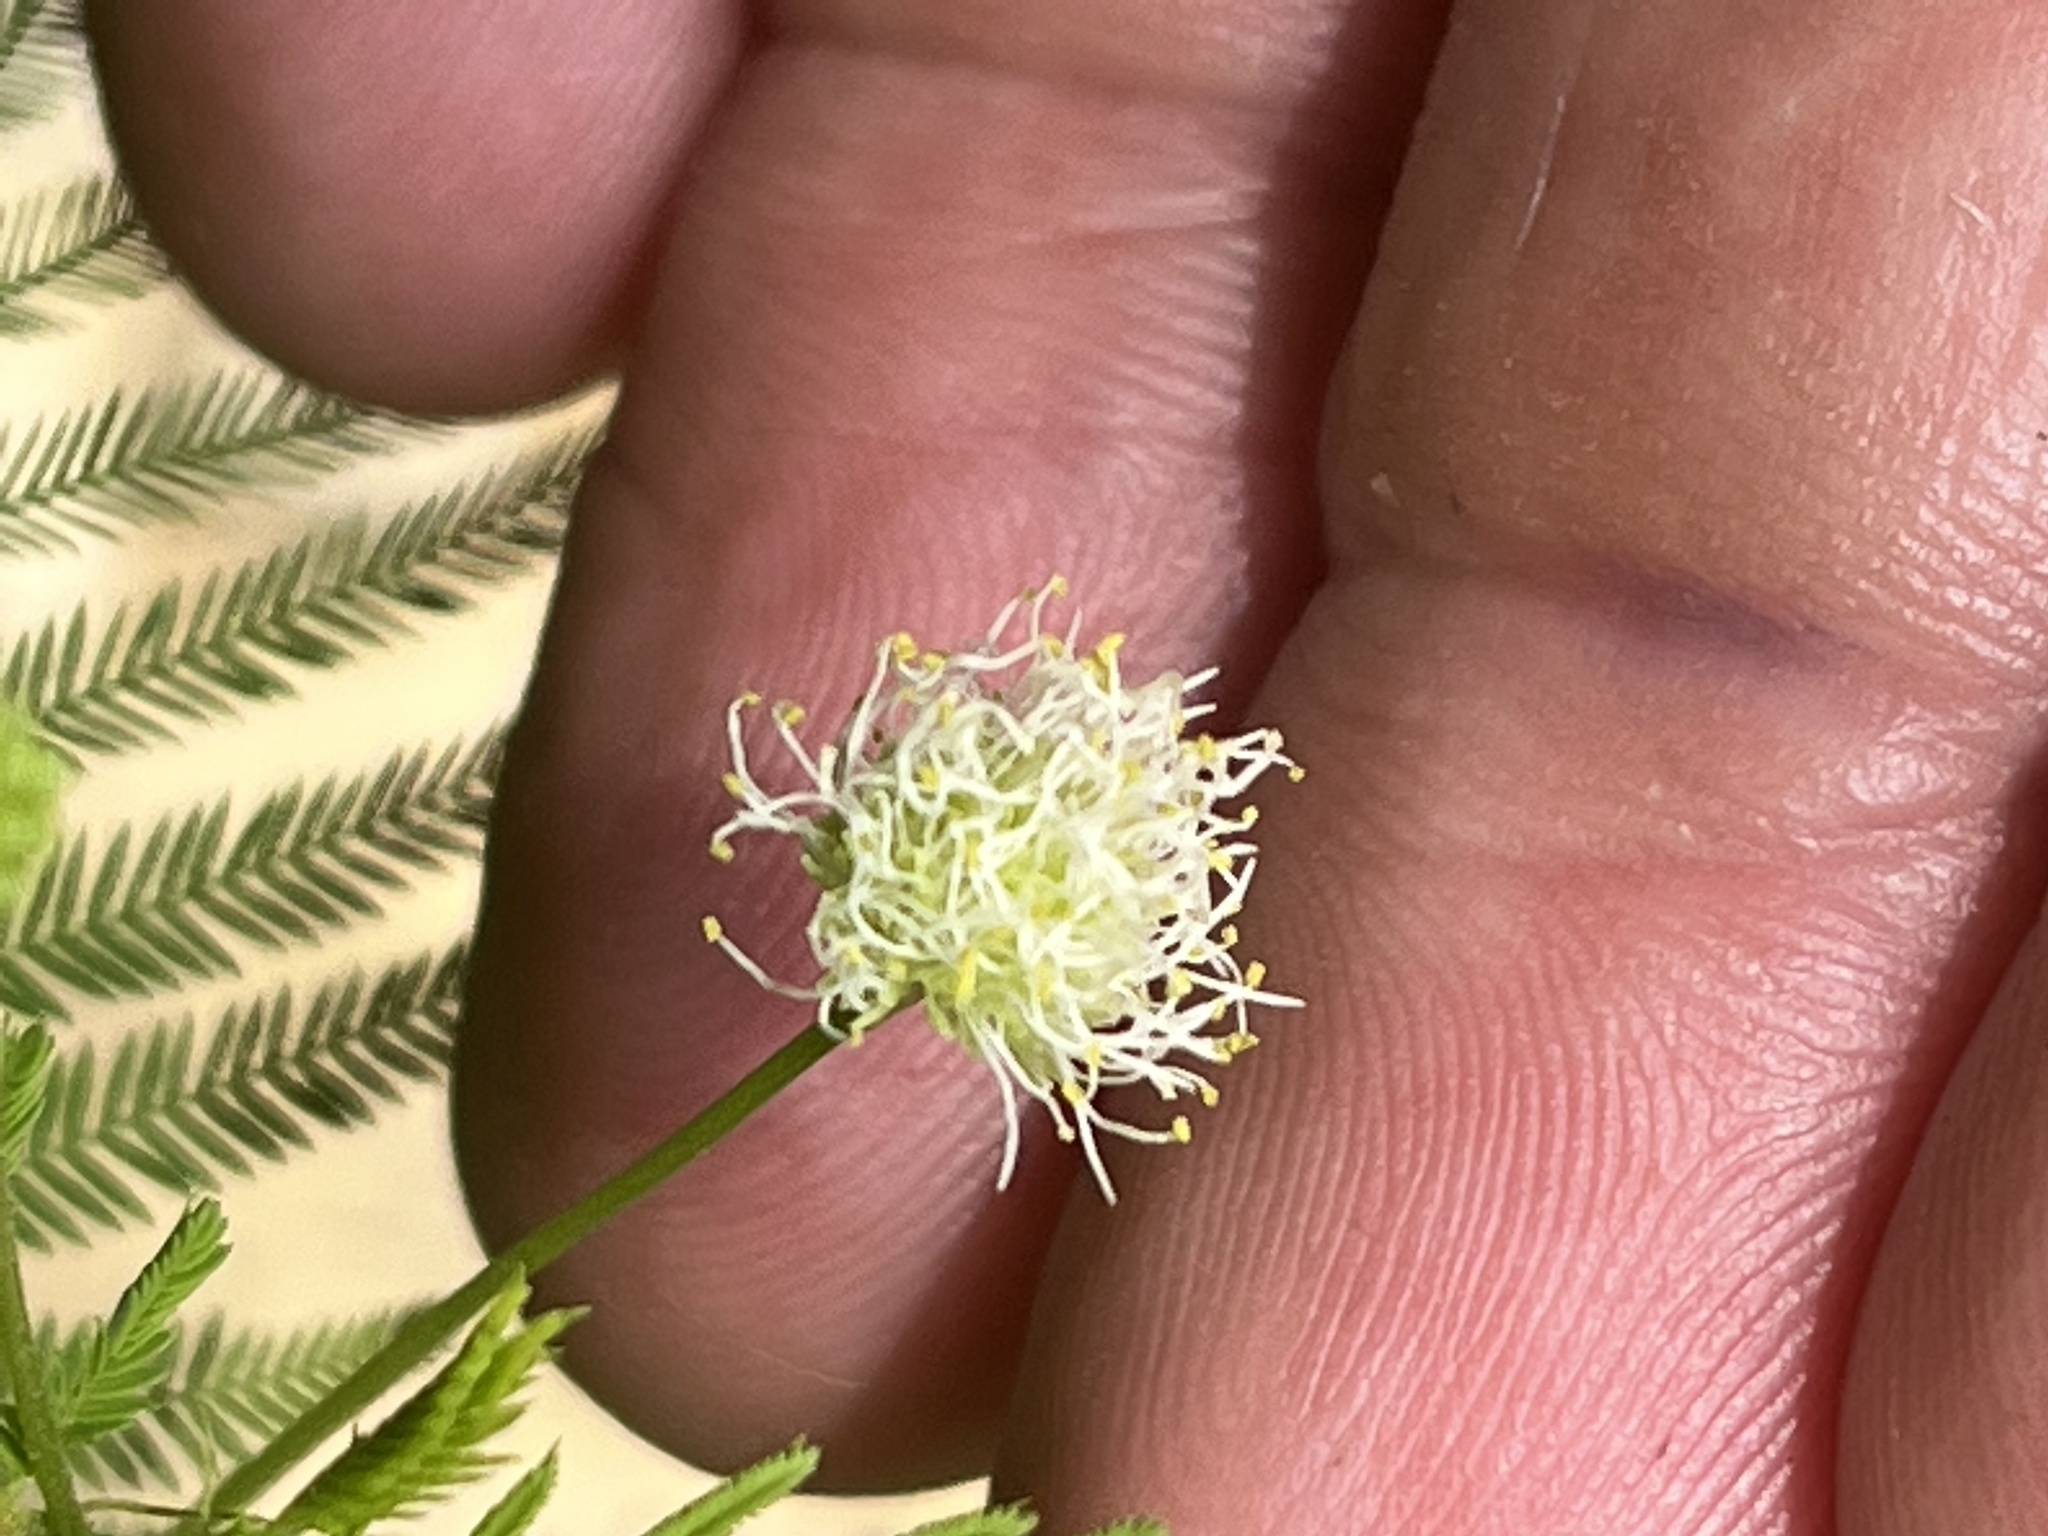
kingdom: Plantae
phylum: Tracheophyta
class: Magnoliopsida
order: Fabales
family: Fabaceae
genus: Desmanthus
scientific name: Desmanthus illinoensis
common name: Illinois bundle-flower
